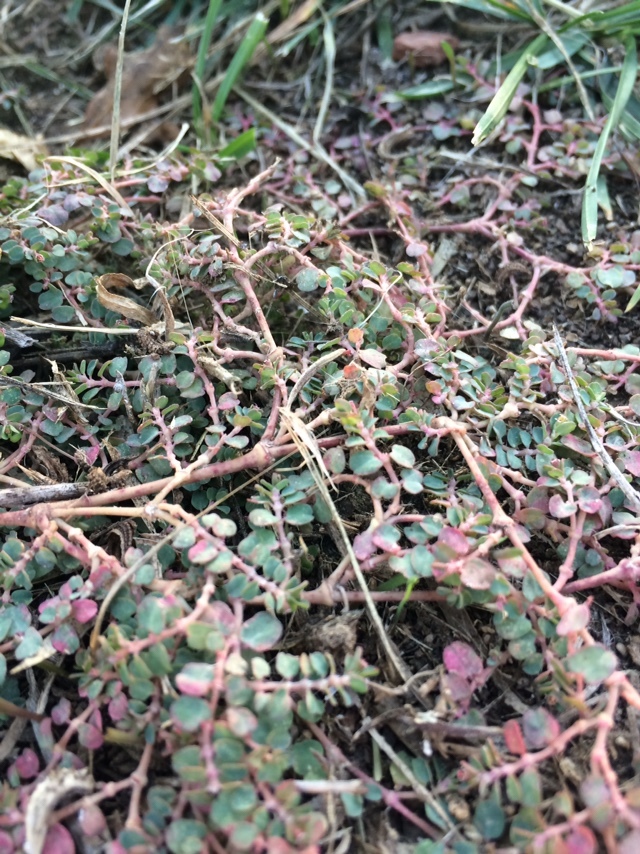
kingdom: Plantae
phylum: Tracheophyta
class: Magnoliopsida
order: Malpighiales
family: Euphorbiaceae
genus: Euphorbia
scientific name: Euphorbia serpens
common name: Matted sandmat
